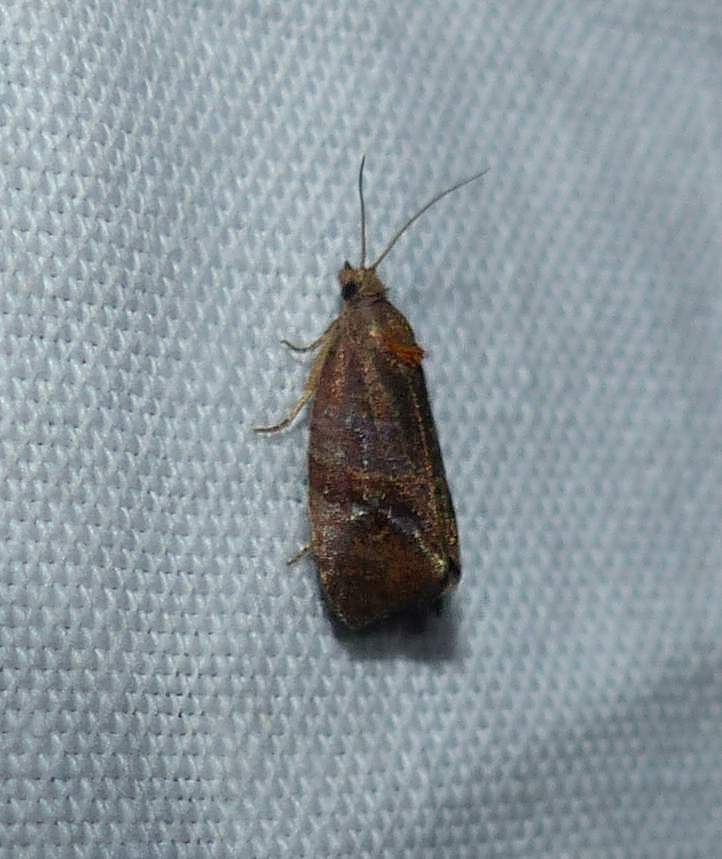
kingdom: Animalia
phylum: Arthropoda
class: Insecta
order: Lepidoptera
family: Tortricidae
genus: Evora
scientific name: Evora hemidesma
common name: Spirea leaftier moth
